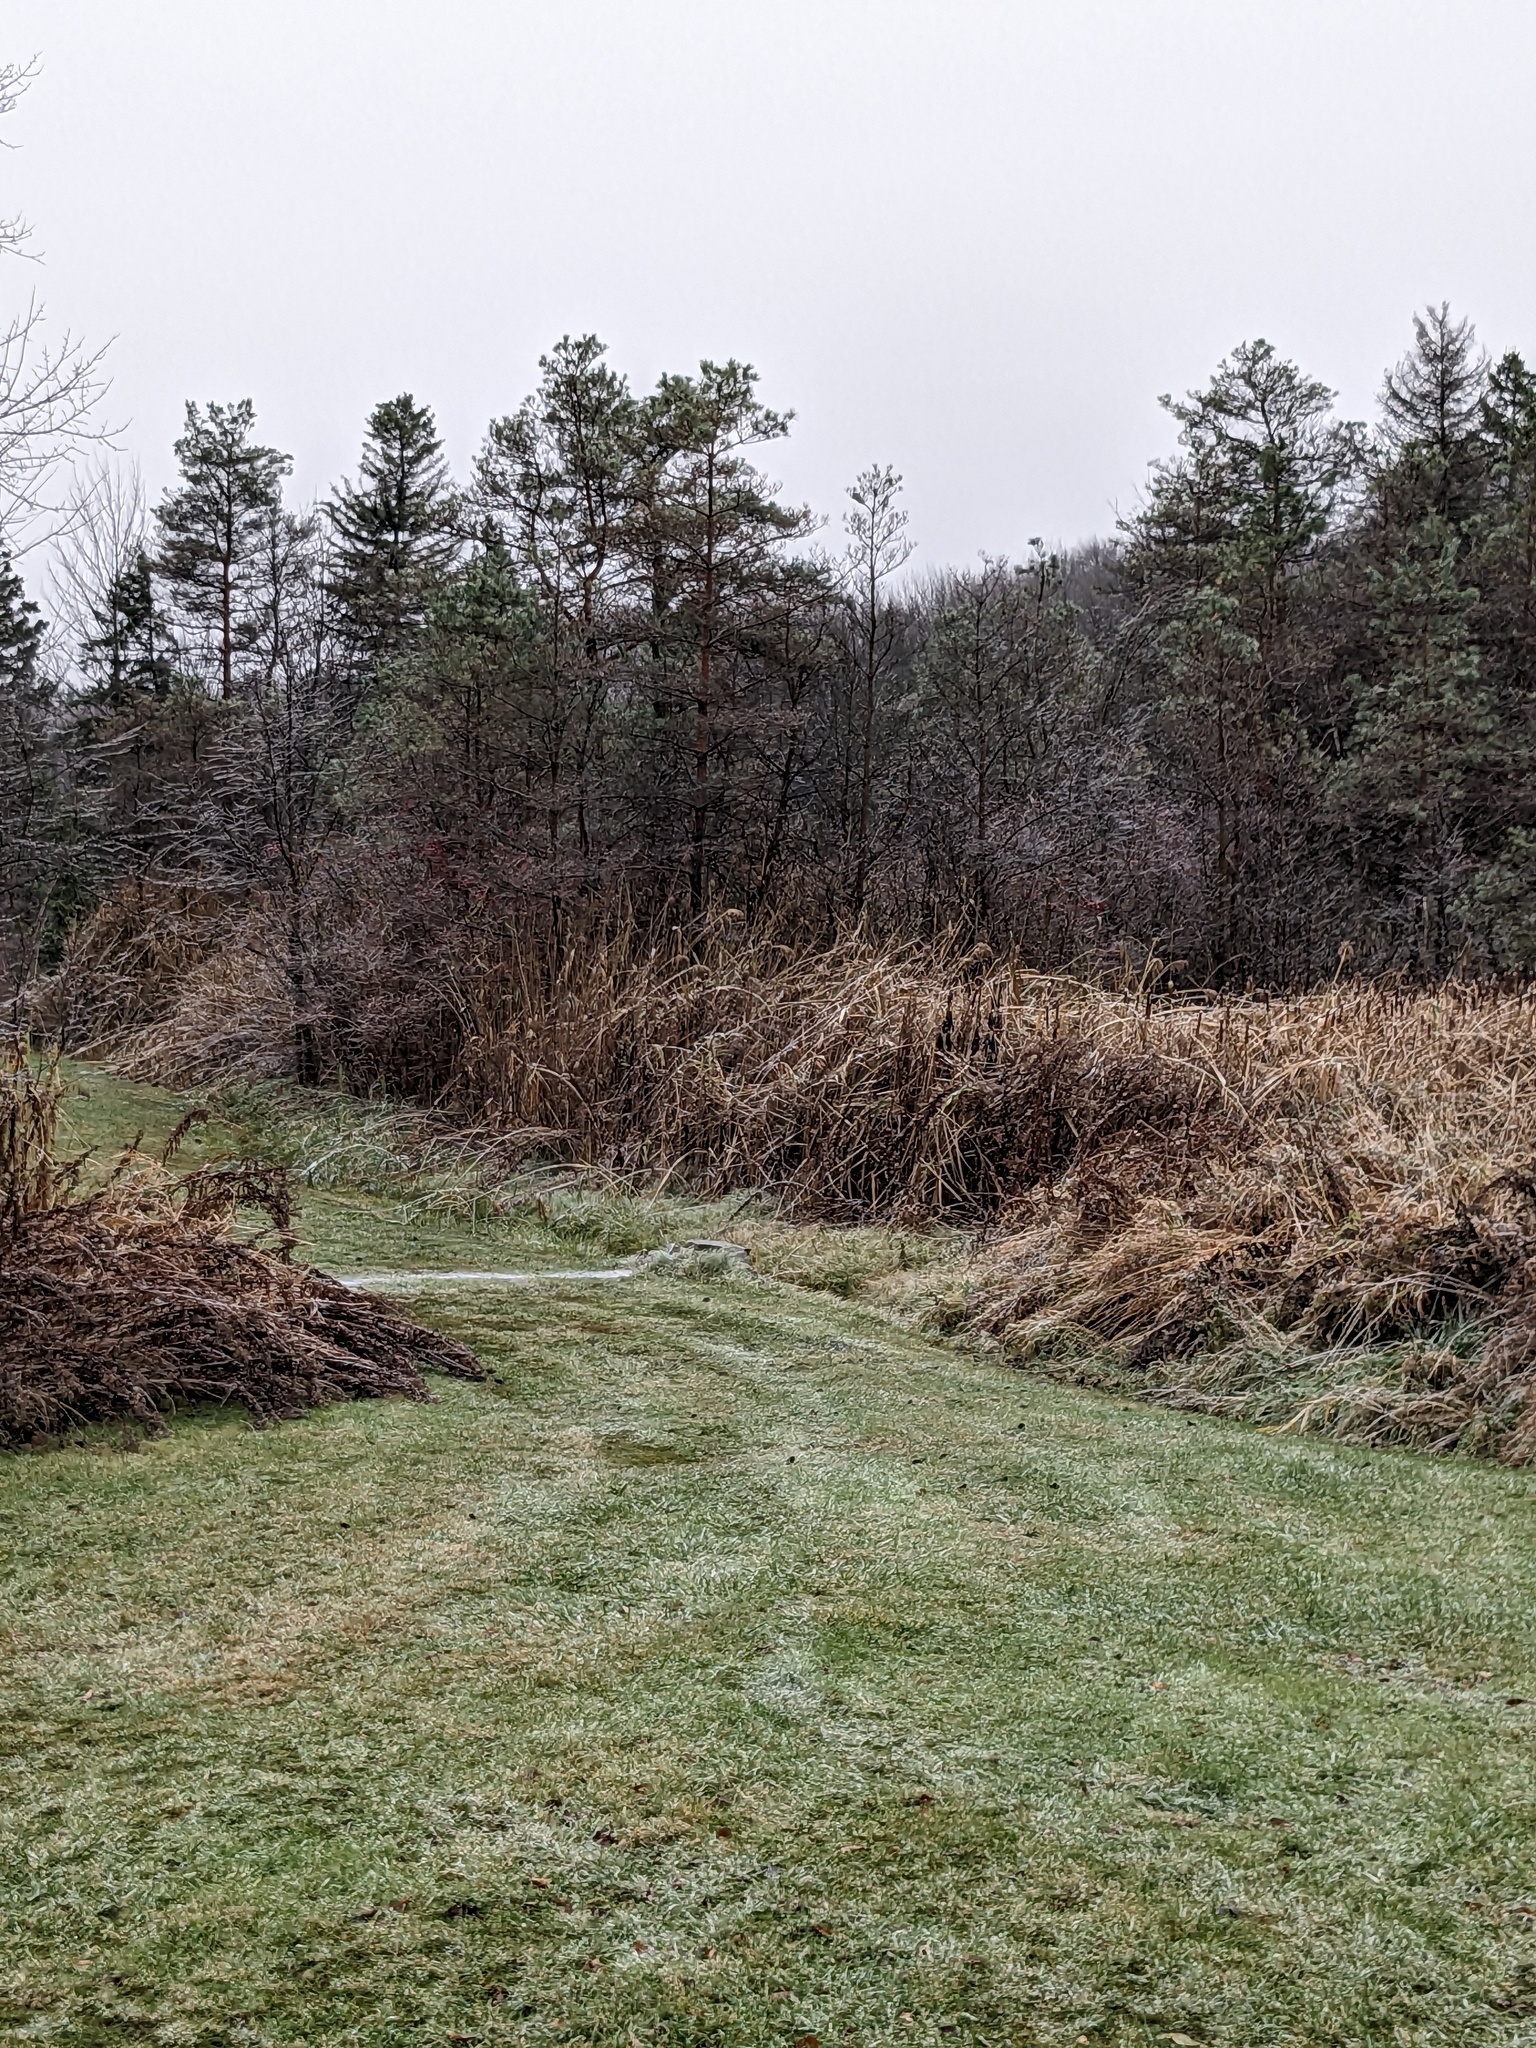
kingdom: Plantae
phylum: Tracheophyta
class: Liliopsida
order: Poales
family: Poaceae
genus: Phragmites
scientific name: Phragmites australis
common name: Common reed
